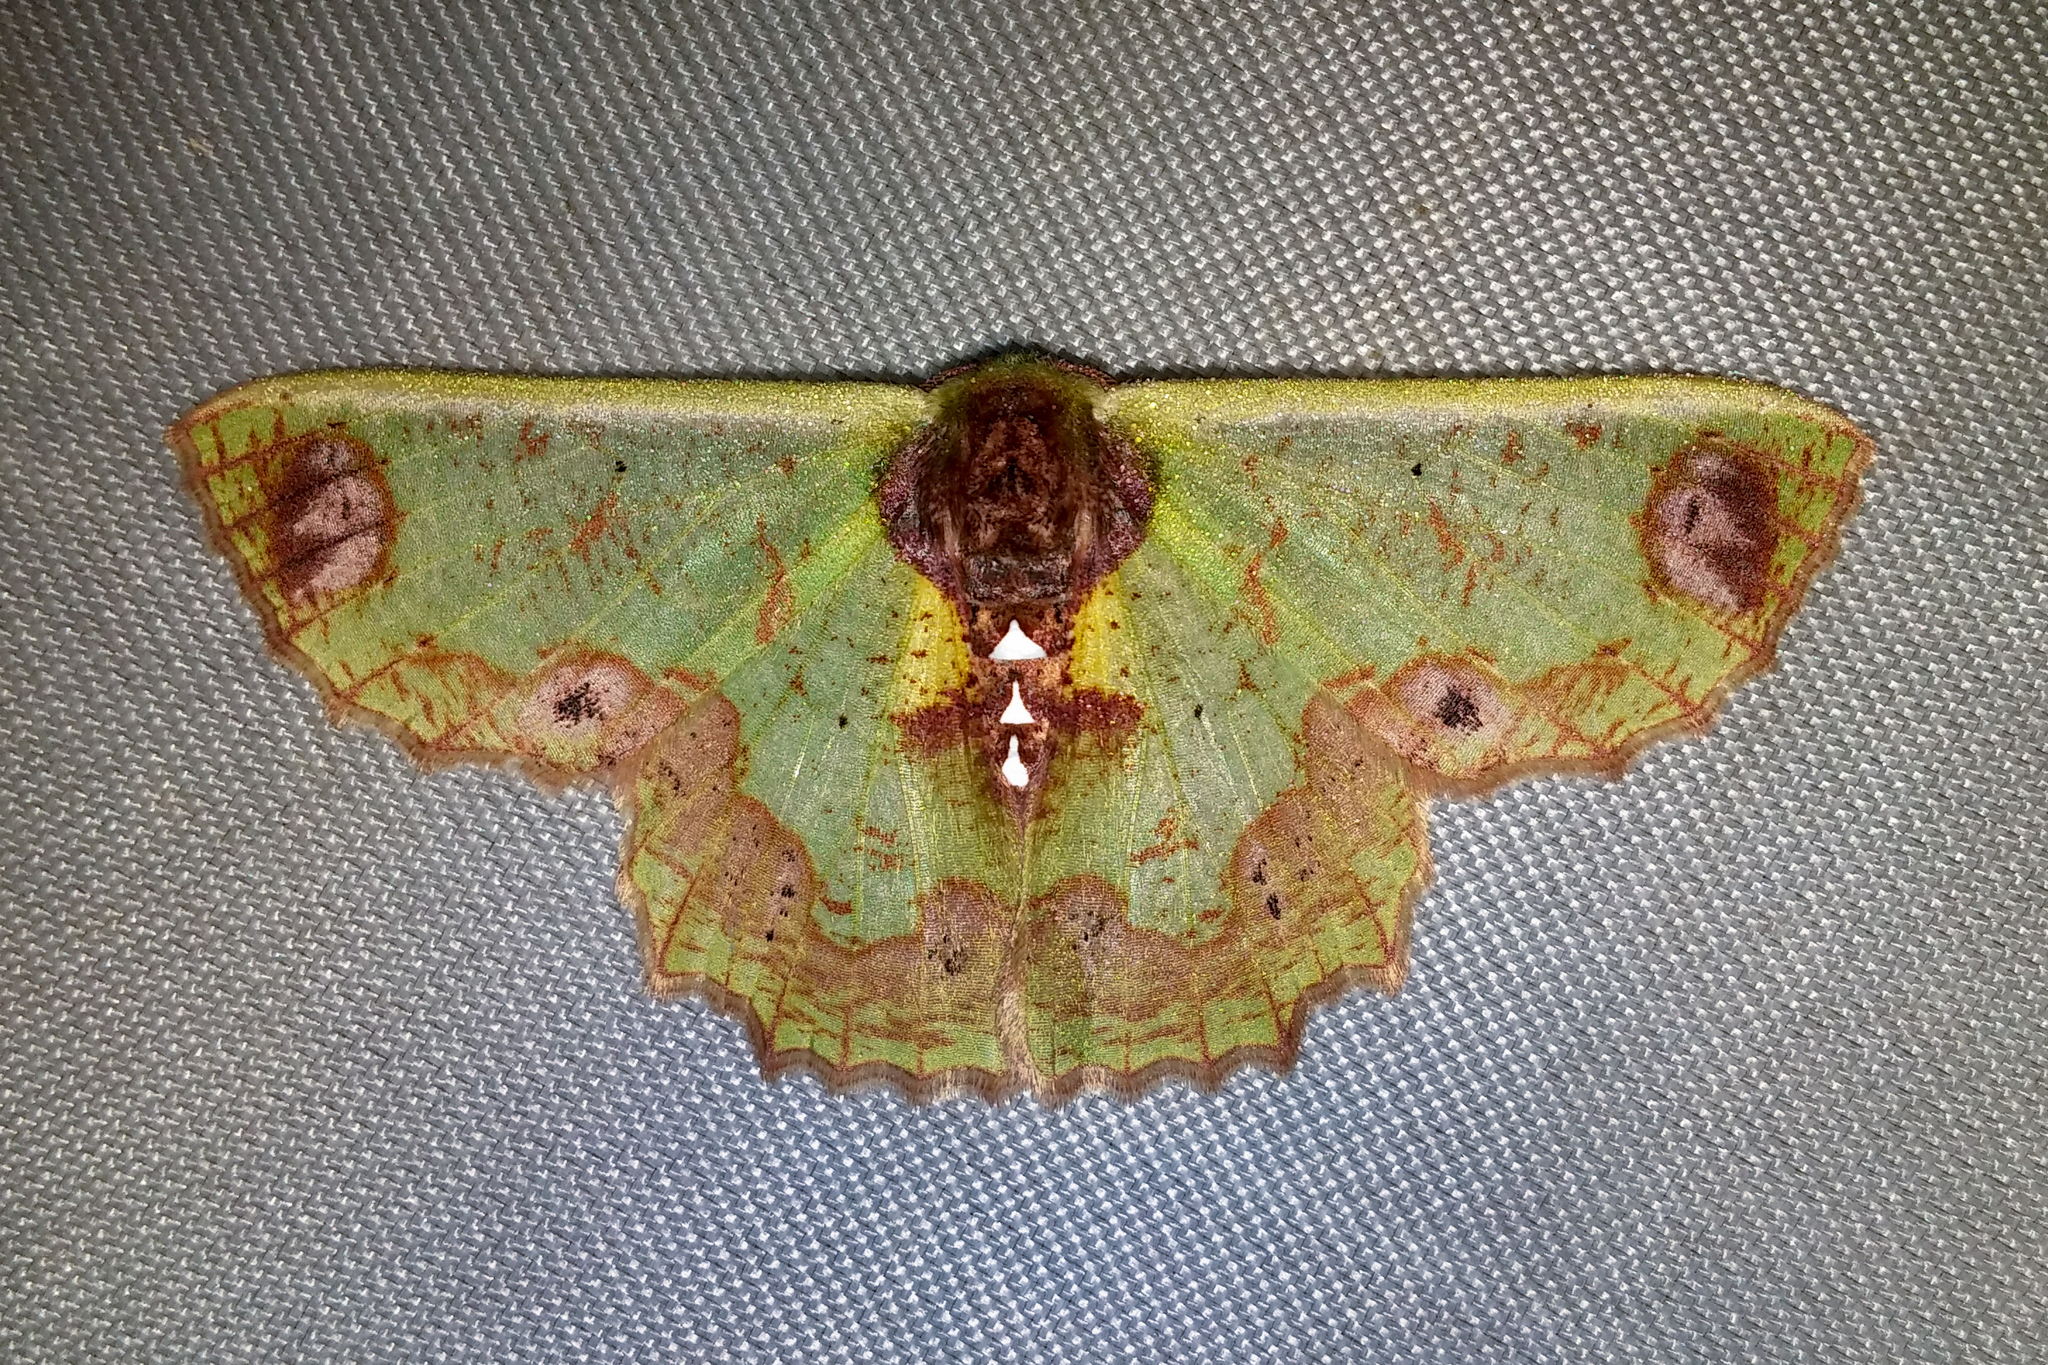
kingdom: Animalia
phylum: Arthropoda
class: Insecta
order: Lepidoptera
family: Geometridae
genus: Agathiopsis
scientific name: Agathiopsis basipuncta
